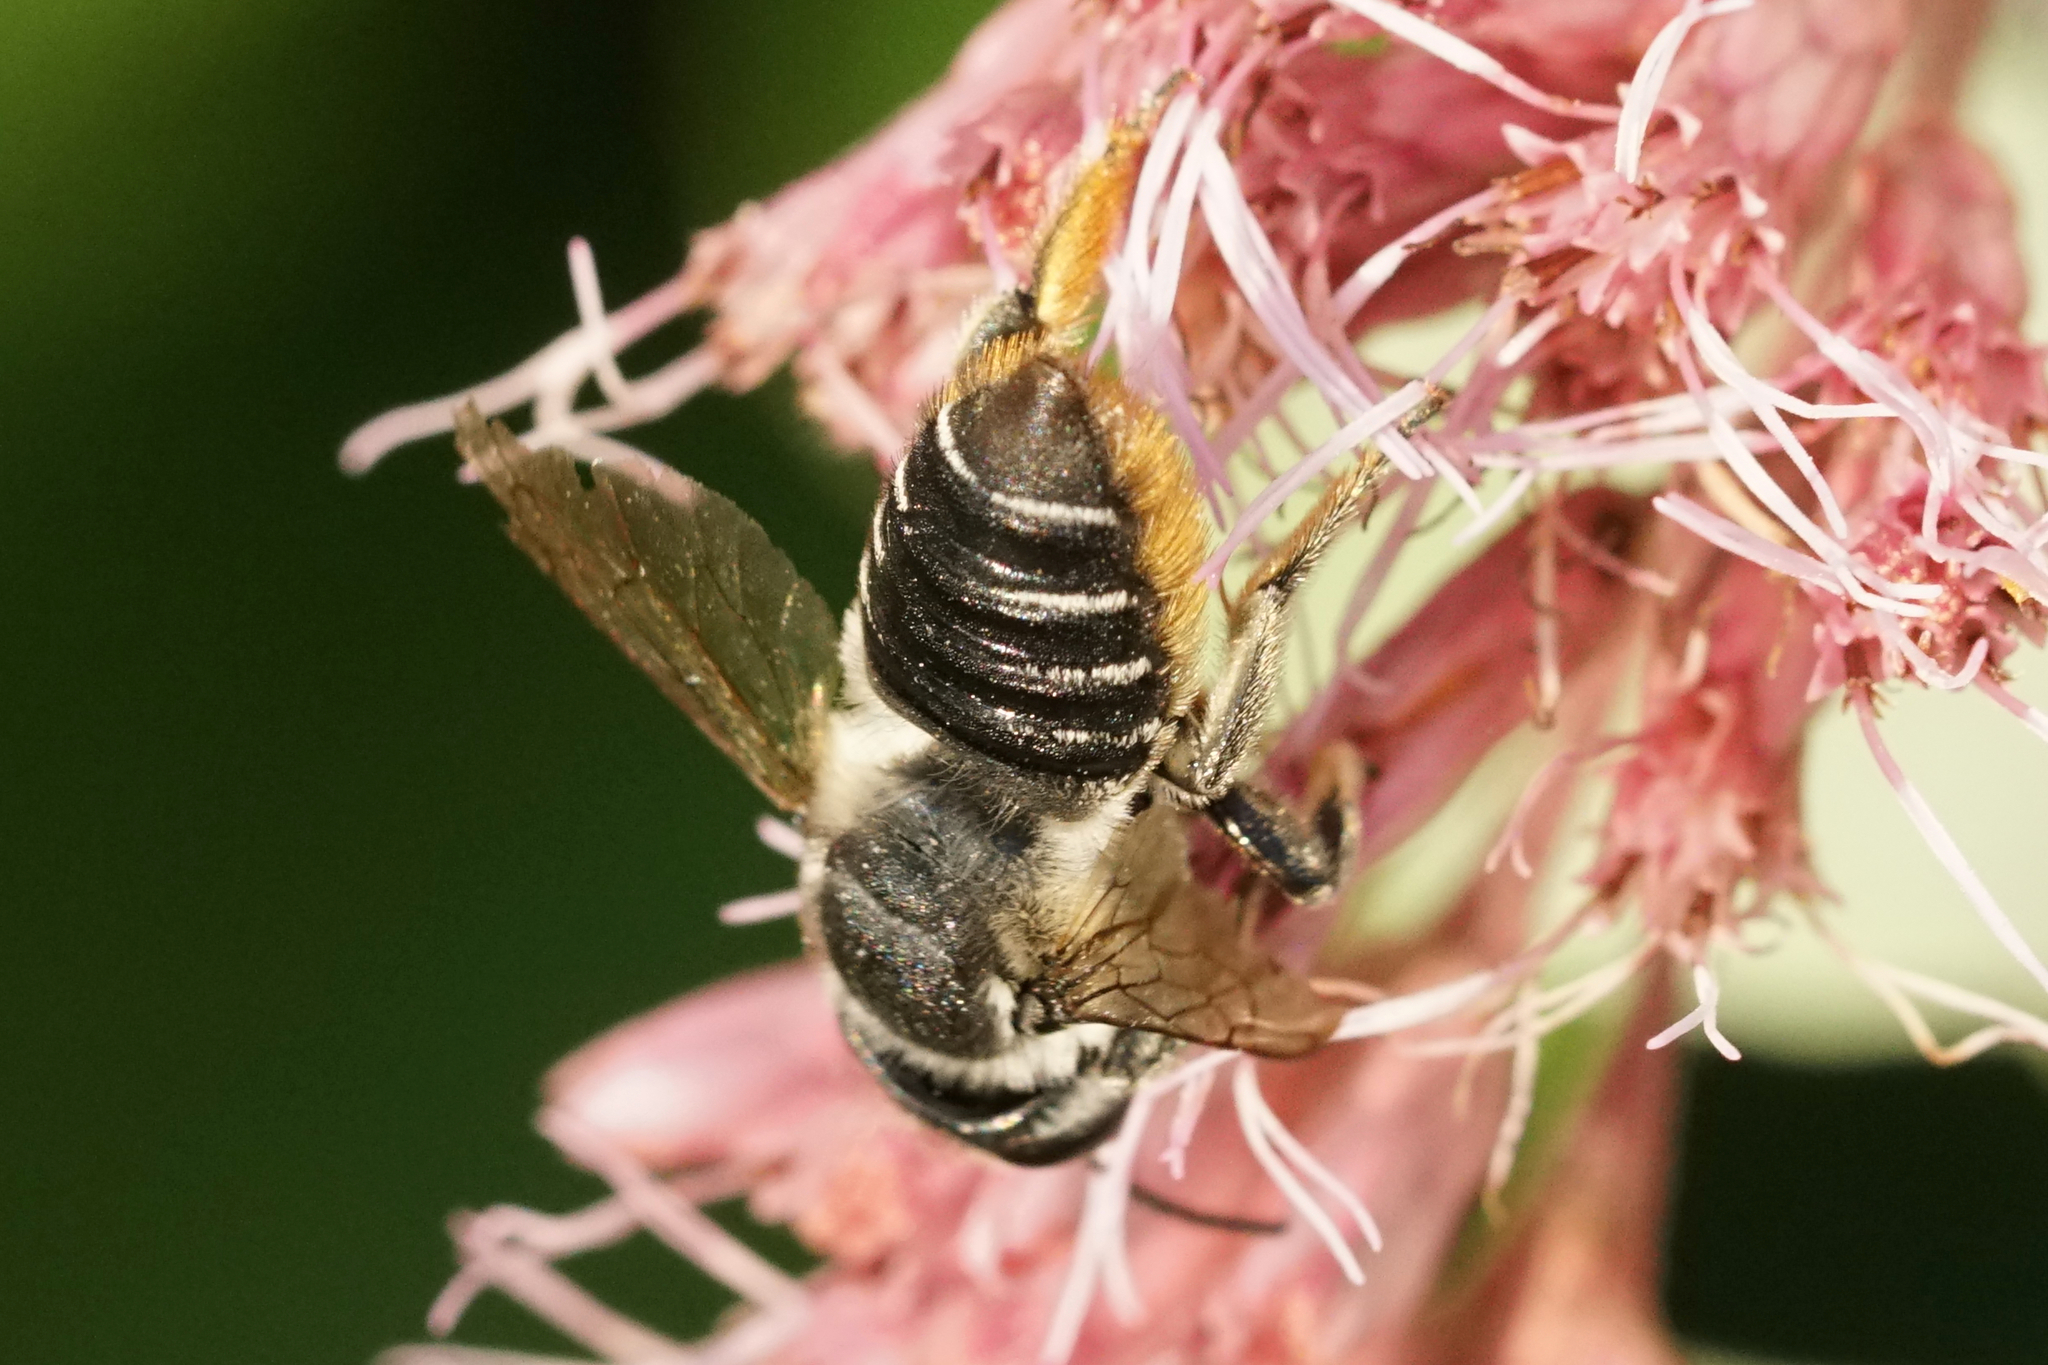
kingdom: Animalia
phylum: Arthropoda
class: Insecta
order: Hymenoptera
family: Megachilidae
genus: Megachile
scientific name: Megachile mendica
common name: Flat-tailed leafcutter
